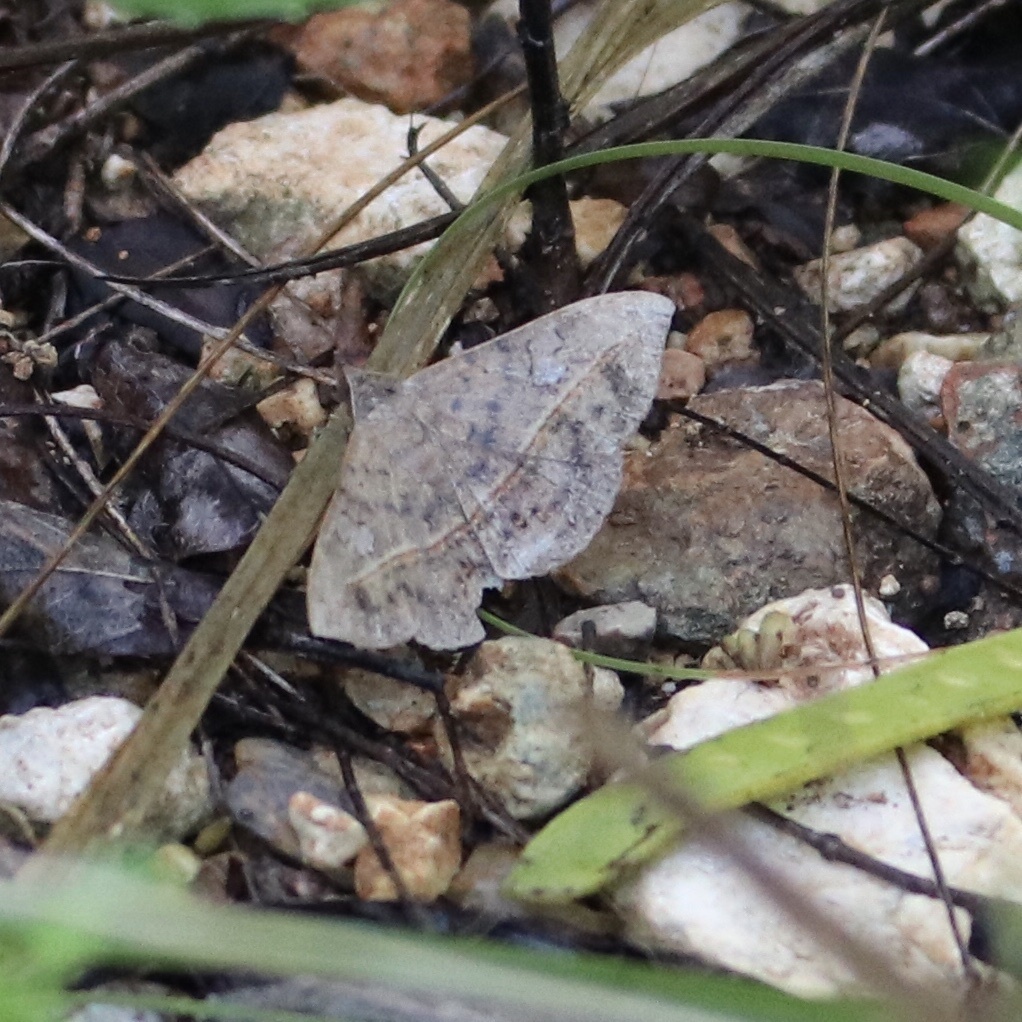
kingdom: Animalia
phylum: Arthropoda
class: Insecta
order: Lepidoptera
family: Erebidae
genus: Anticarsia
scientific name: Anticarsia gemmatalis
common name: Cutworm moth
